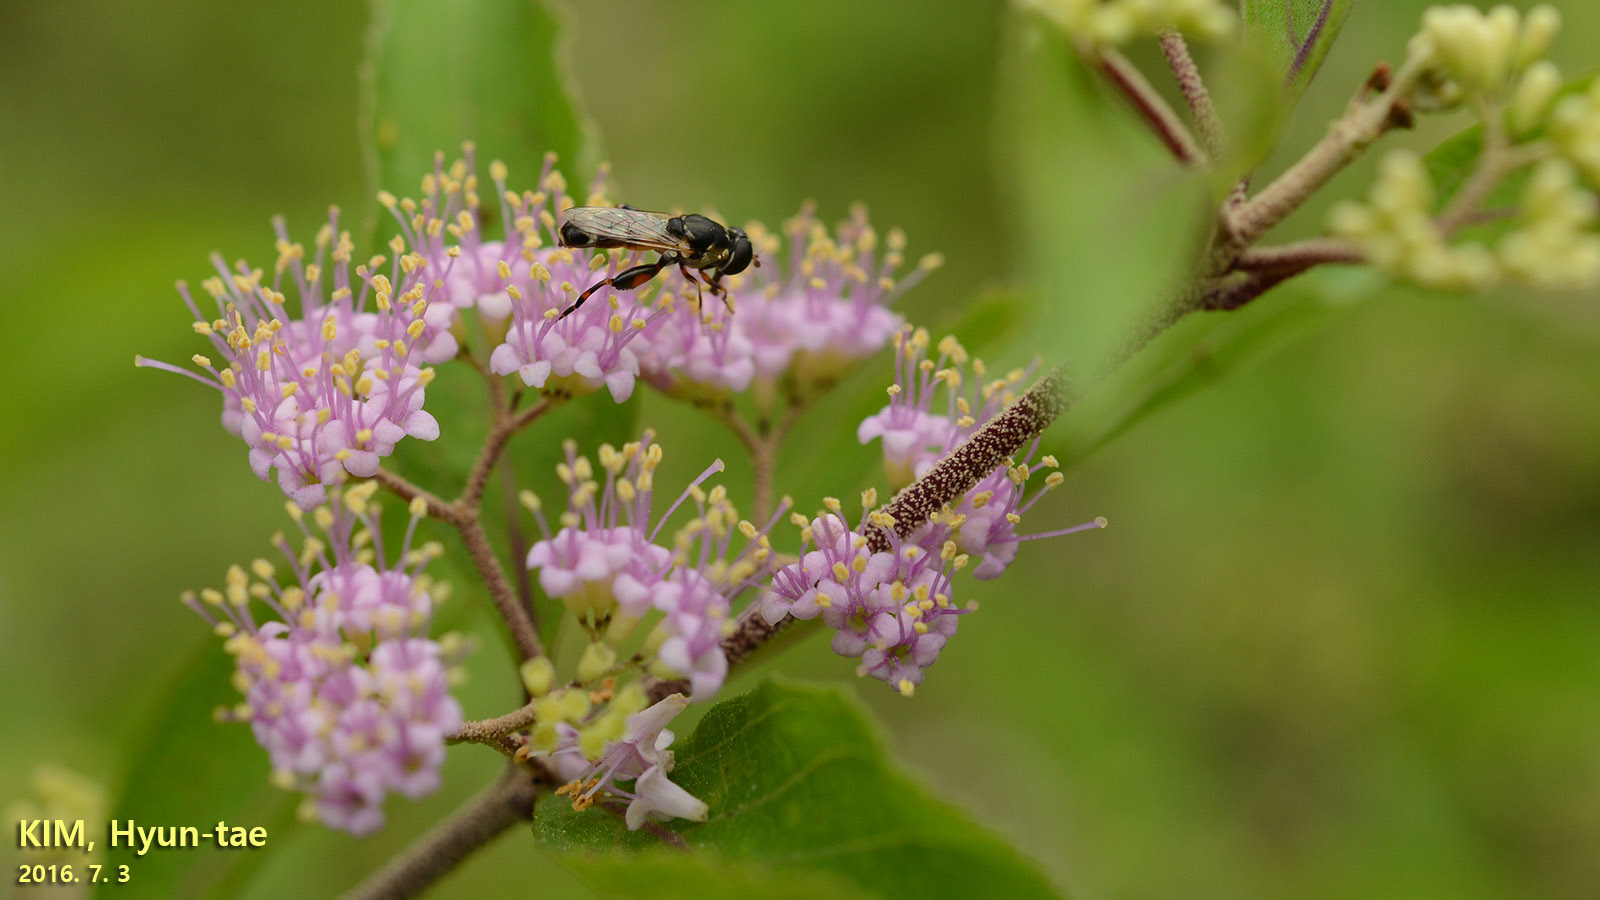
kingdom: Animalia
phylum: Arthropoda
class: Insecta
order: Diptera
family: Syrphidae
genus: Syritta
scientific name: Syritta pipiens
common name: Hover fly
